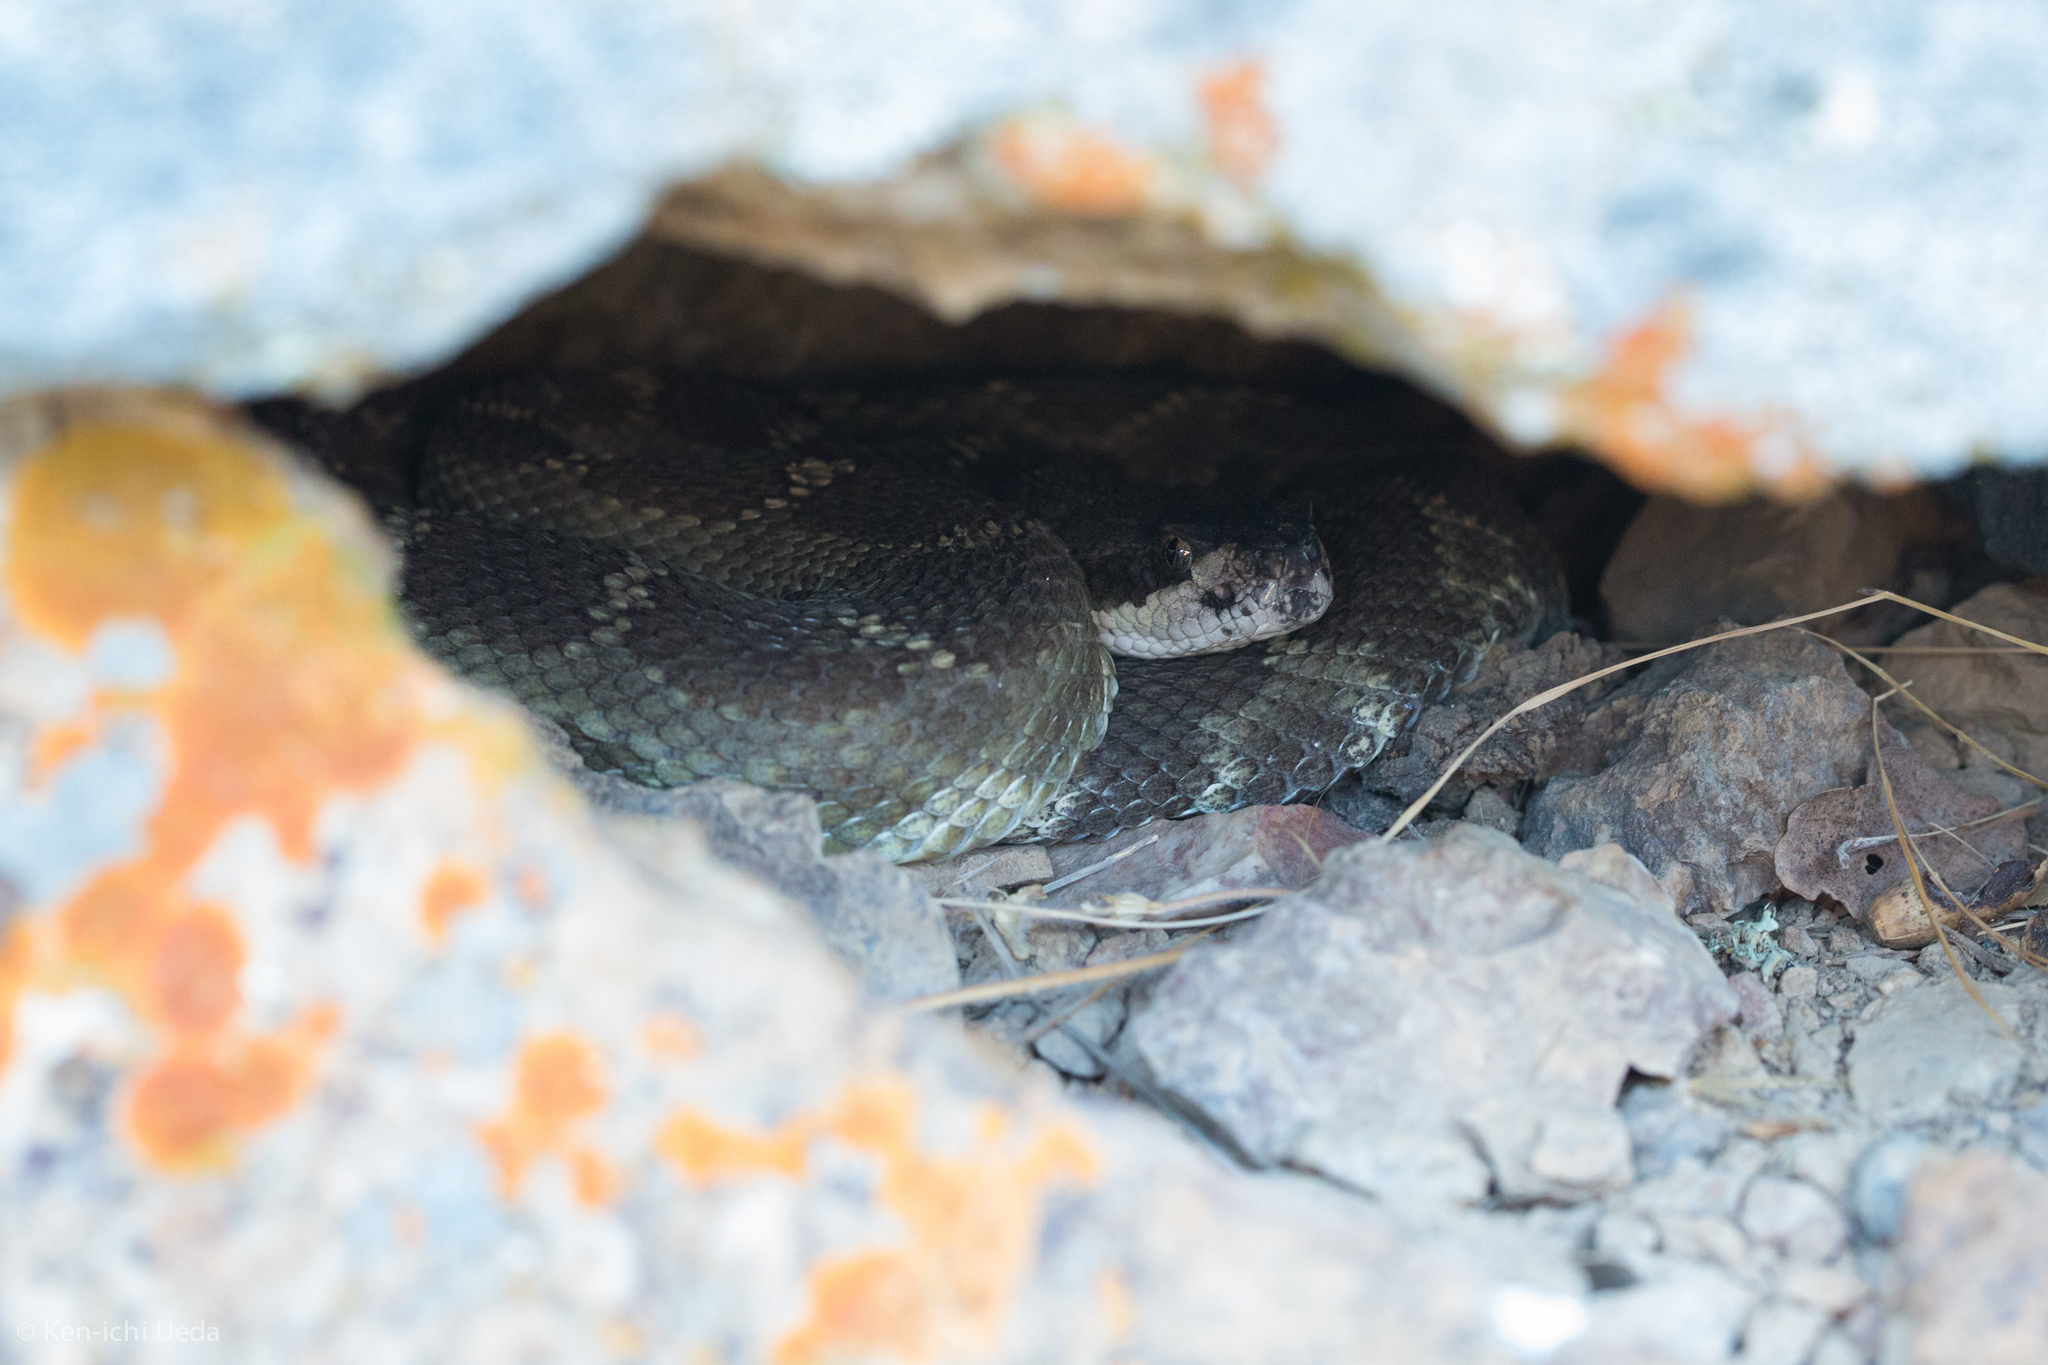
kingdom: Animalia
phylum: Chordata
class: Squamata
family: Viperidae
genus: Crotalus
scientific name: Crotalus oreganus
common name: Abyssus
